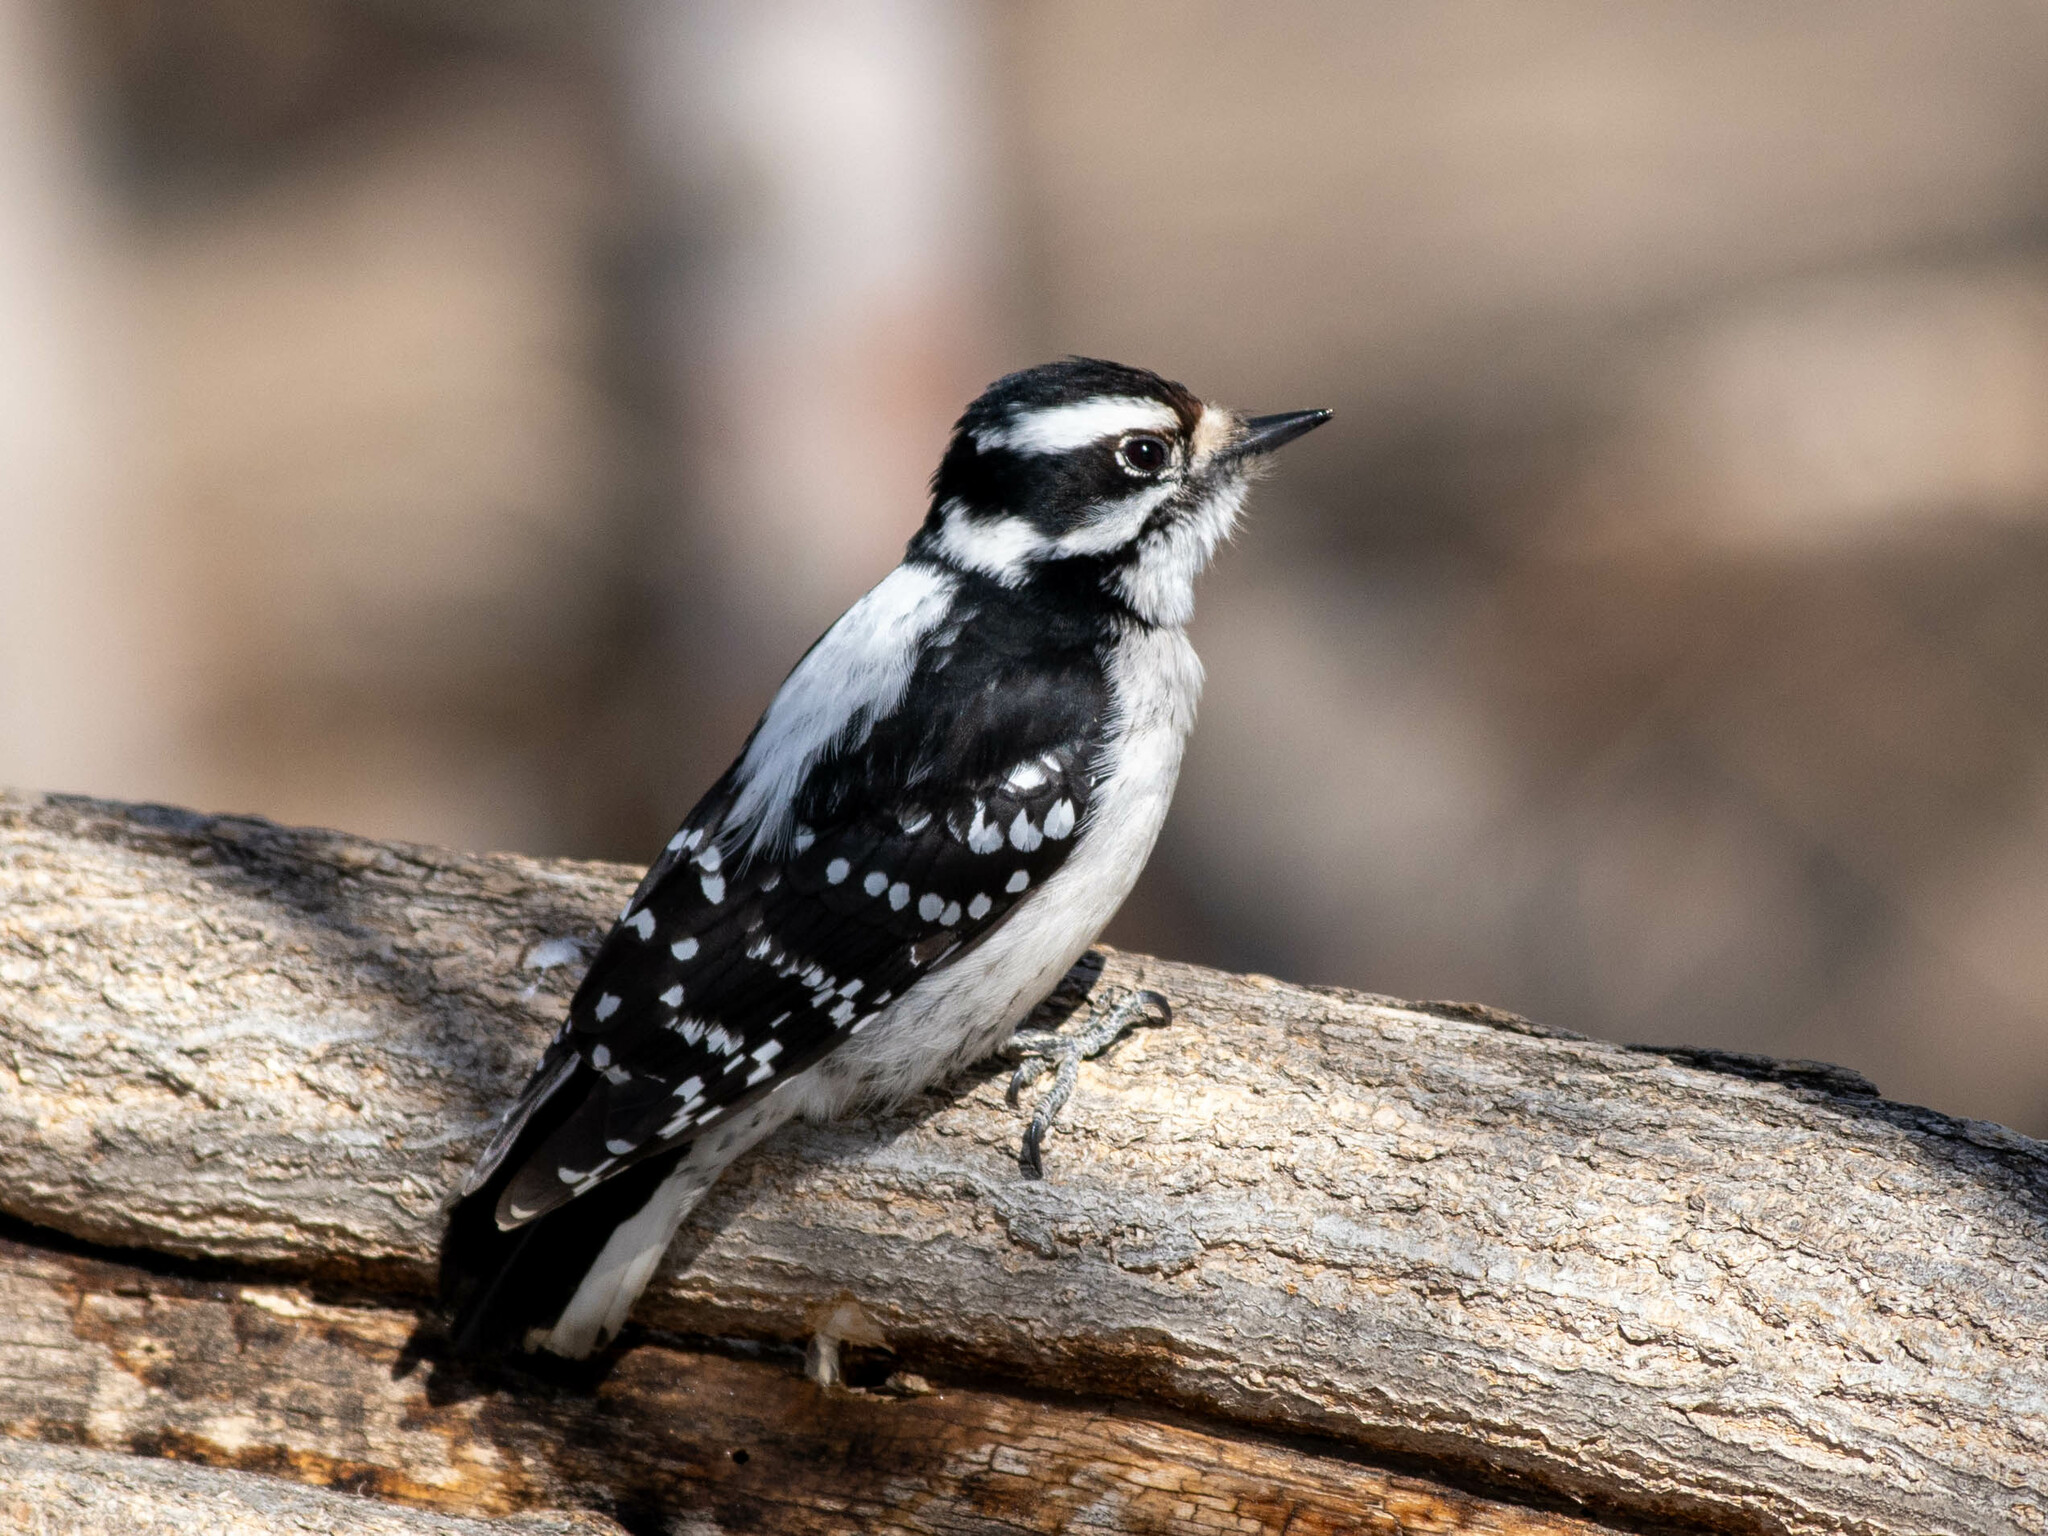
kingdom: Animalia
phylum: Chordata
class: Aves
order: Piciformes
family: Picidae
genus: Dryobates
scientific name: Dryobates pubescens
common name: Downy woodpecker
